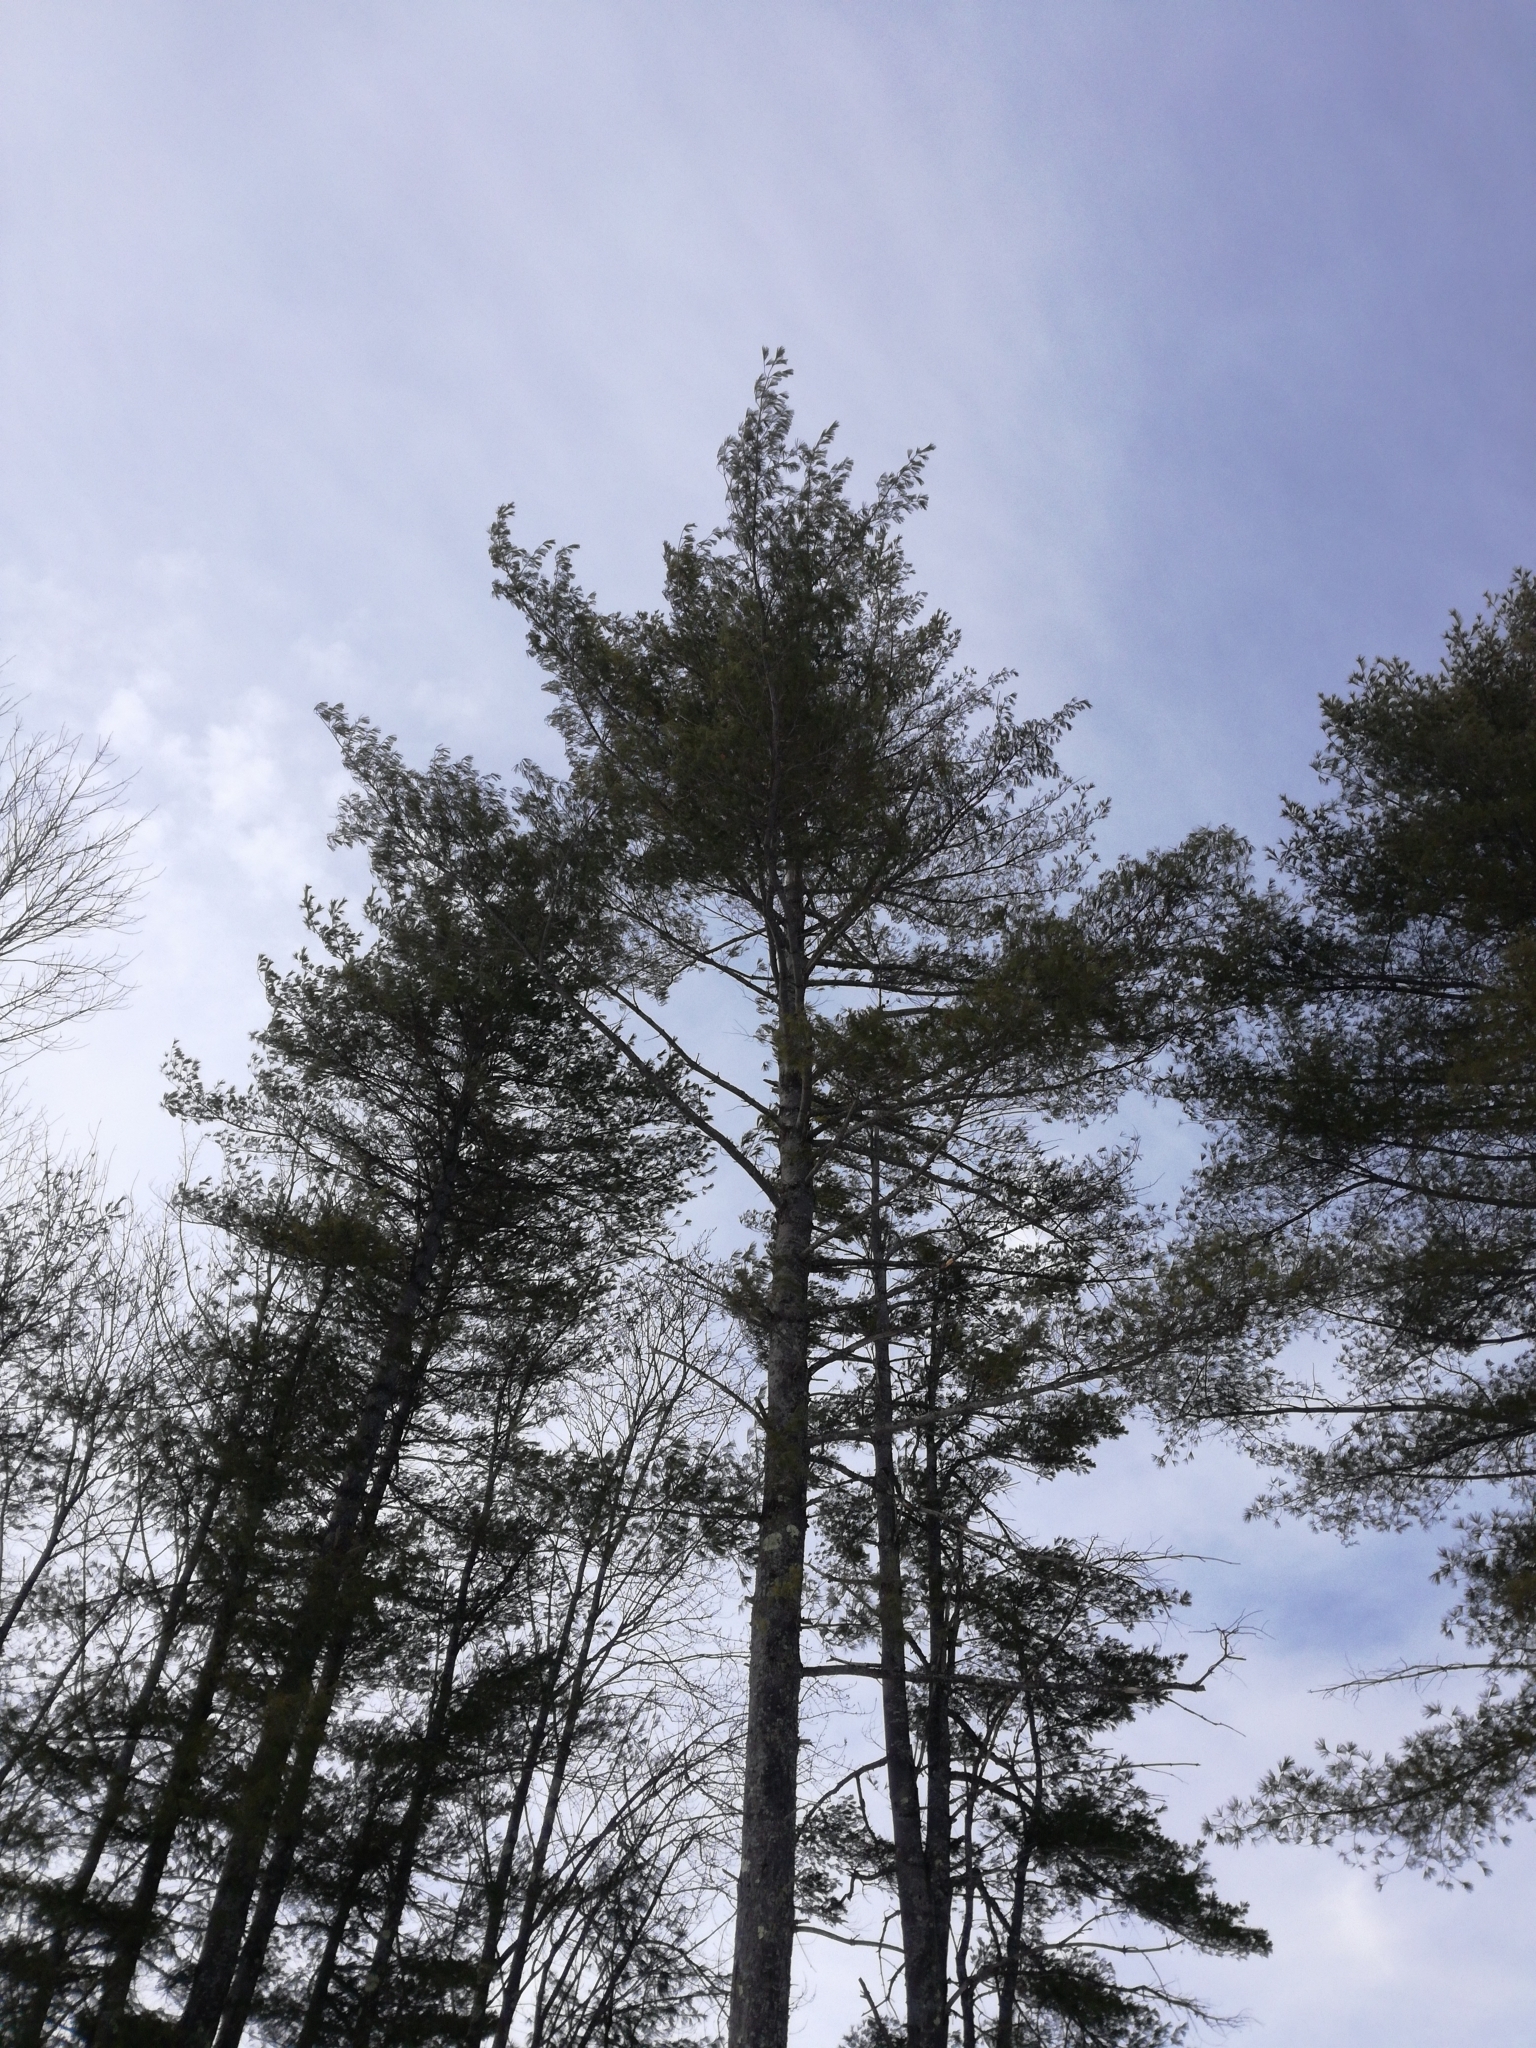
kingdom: Plantae
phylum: Tracheophyta
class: Pinopsida
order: Pinales
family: Pinaceae
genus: Pinus
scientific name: Pinus strobus
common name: Weymouth pine
